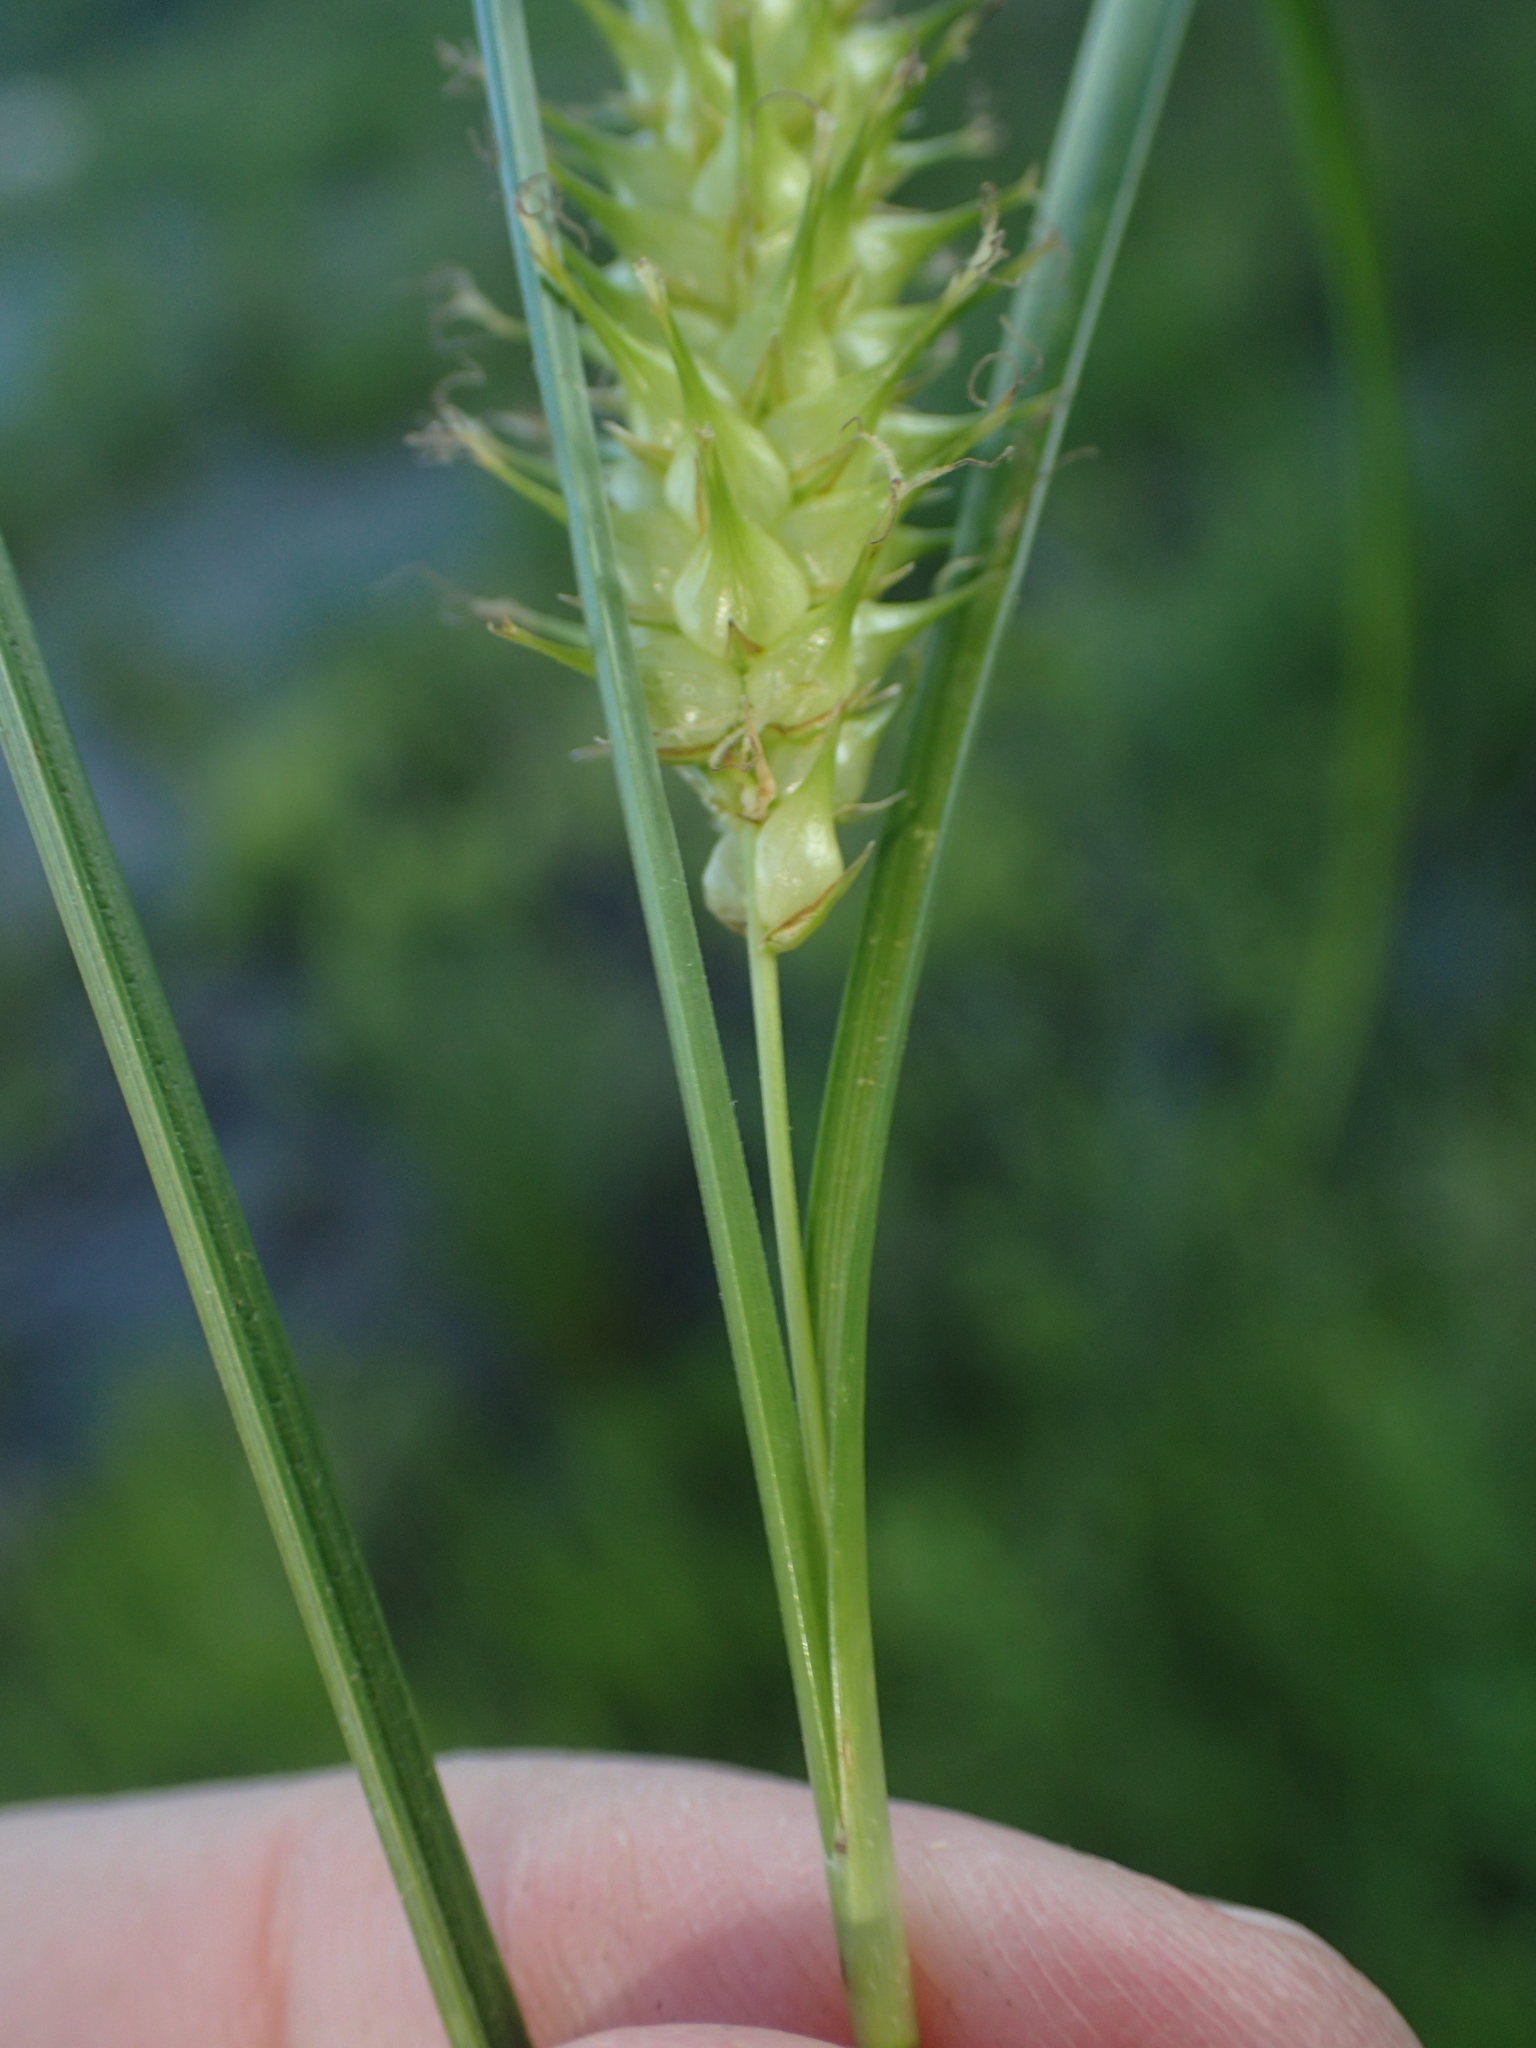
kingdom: Plantae
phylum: Tracheophyta
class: Liliopsida
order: Poales
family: Cyperaceae
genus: Carex
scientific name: Carex bullata
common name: Button sedge
